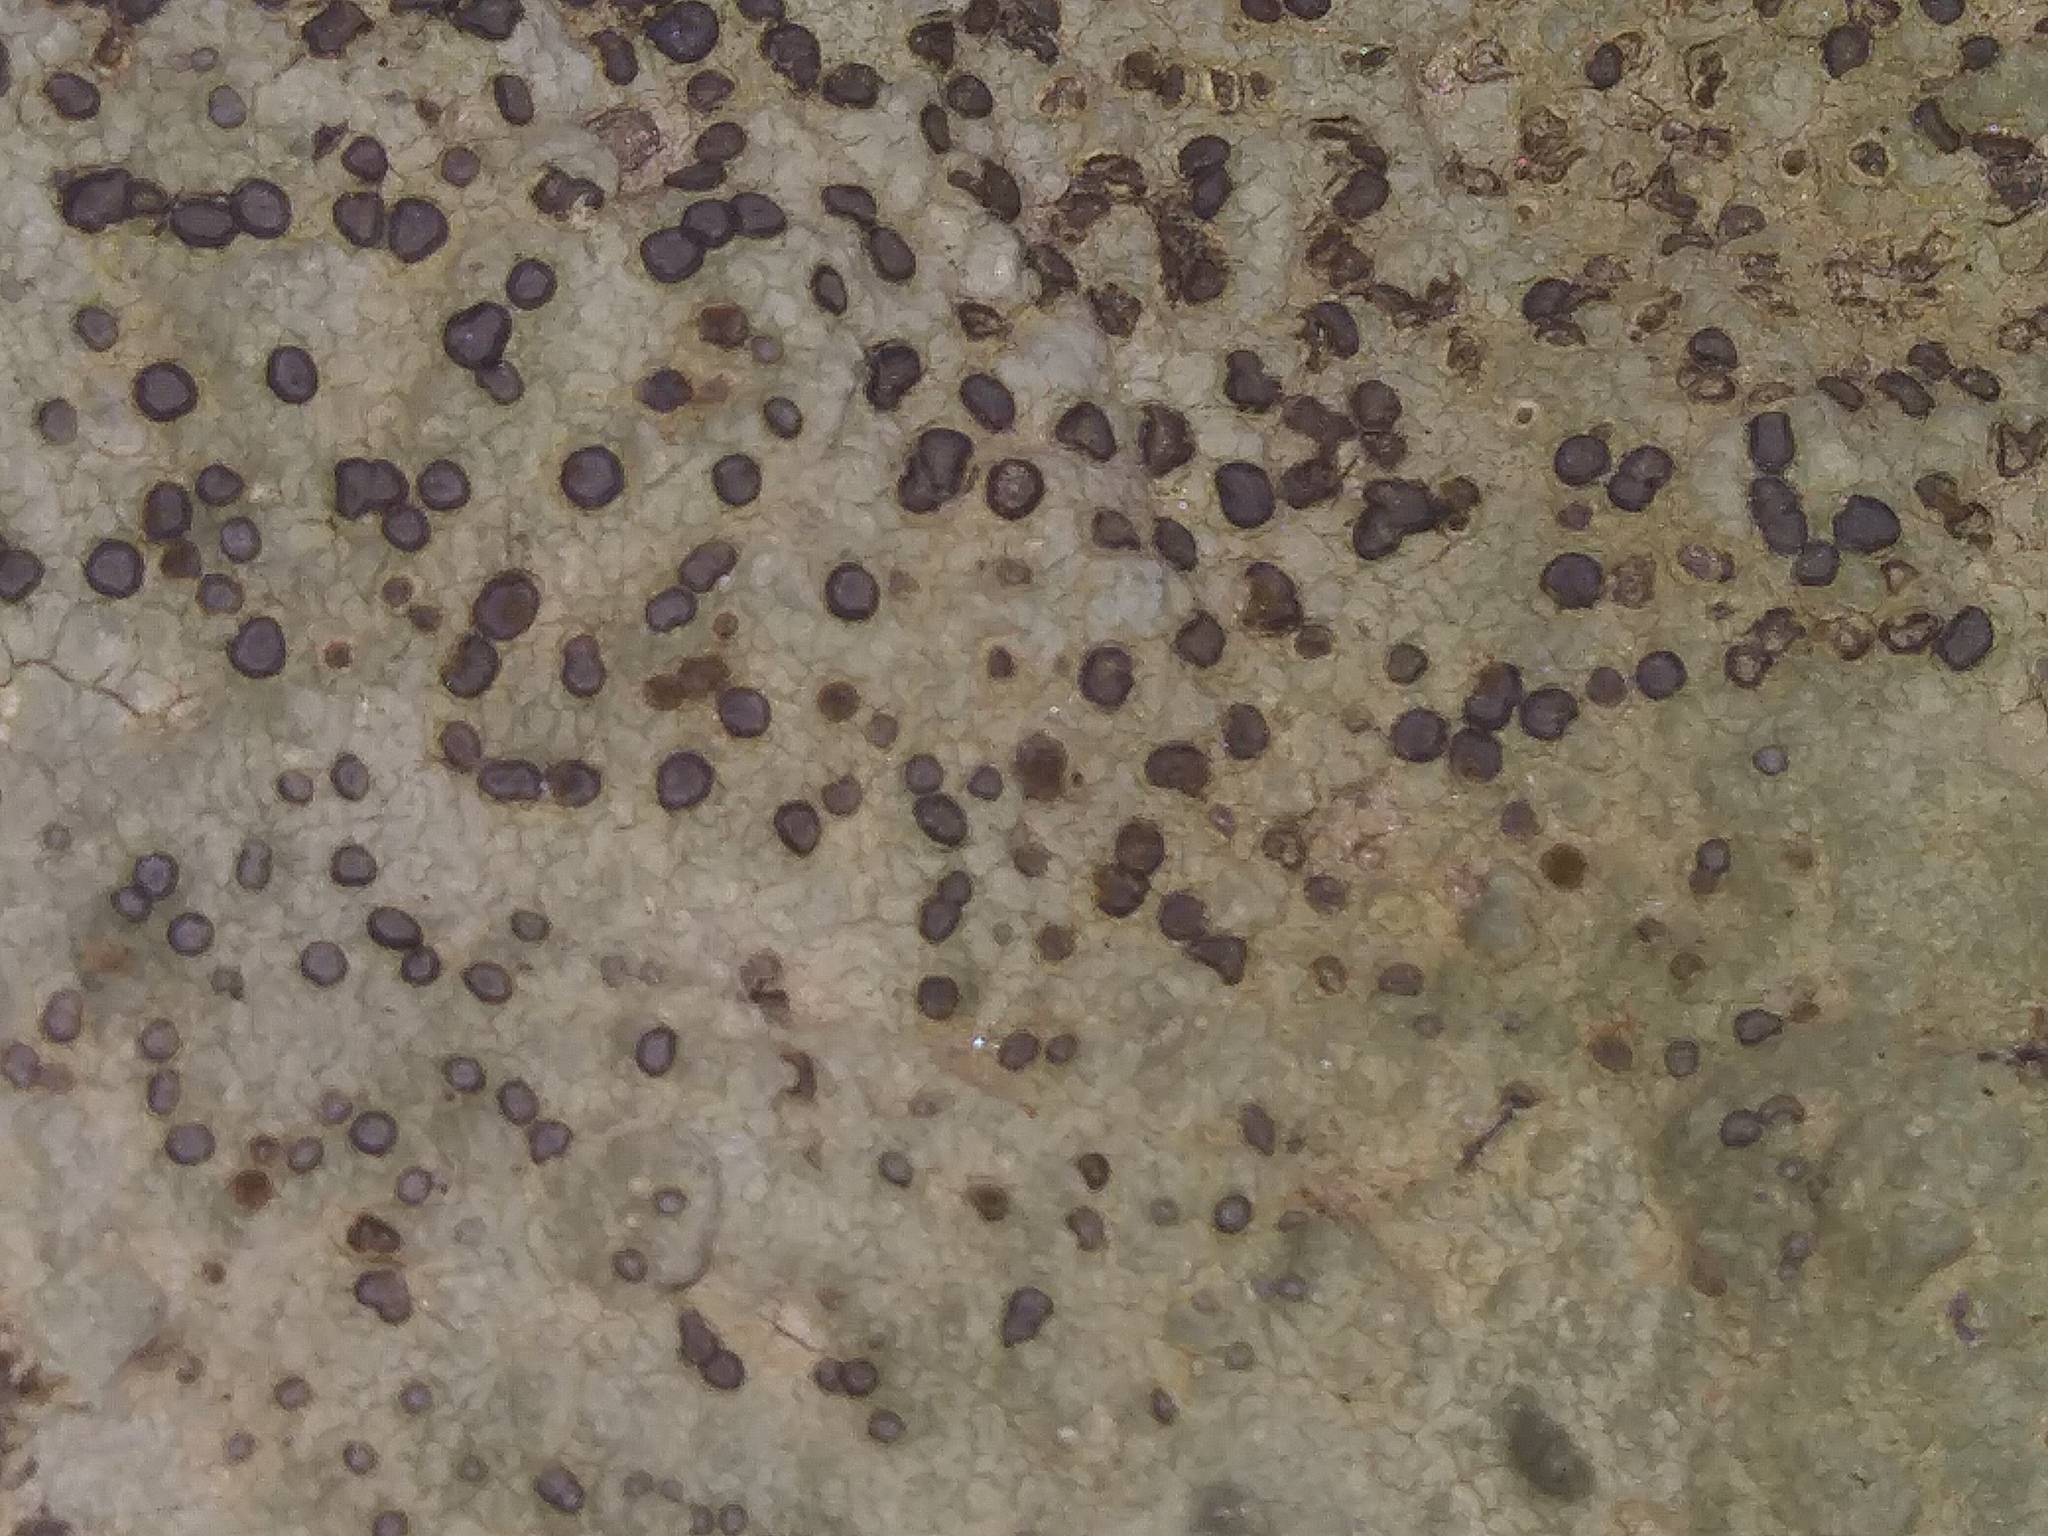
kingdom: Fungi
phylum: Ascomycota
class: Lecanoromycetes
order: Lecideales
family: Lecideaceae
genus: Porpidia
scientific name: Porpidia albocaerulescens
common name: Smokey-eyed boulder lichen
